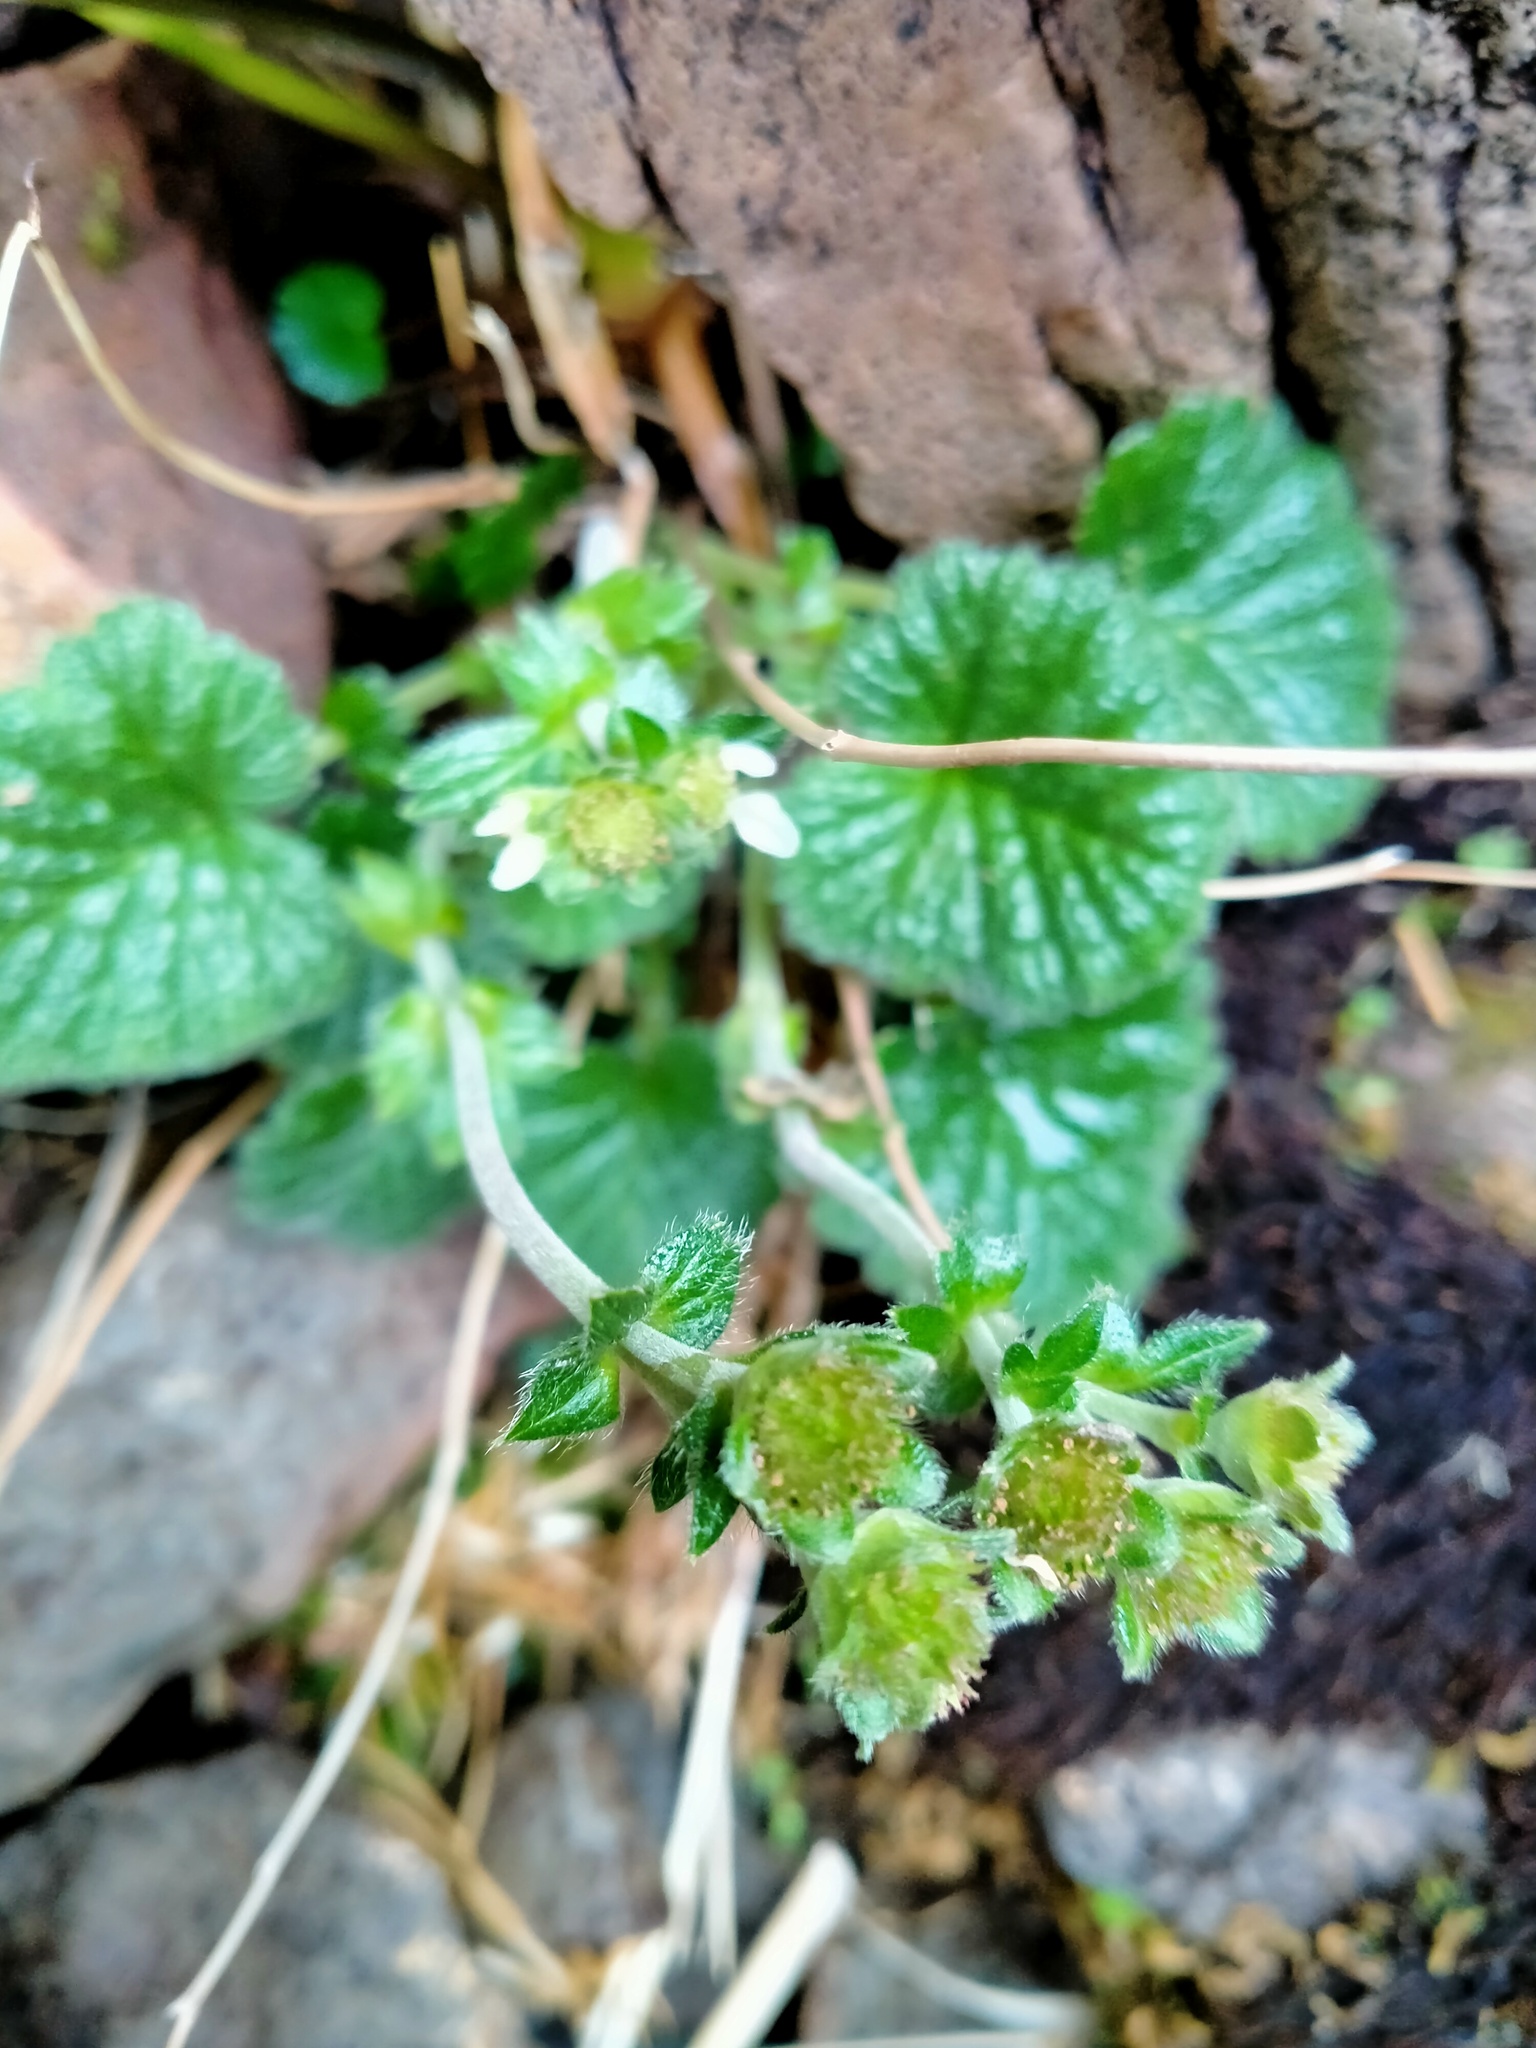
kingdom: Plantae
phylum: Tracheophyta
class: Magnoliopsida
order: Rosales
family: Rosaceae
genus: Geum
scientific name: Geum albiflorum
